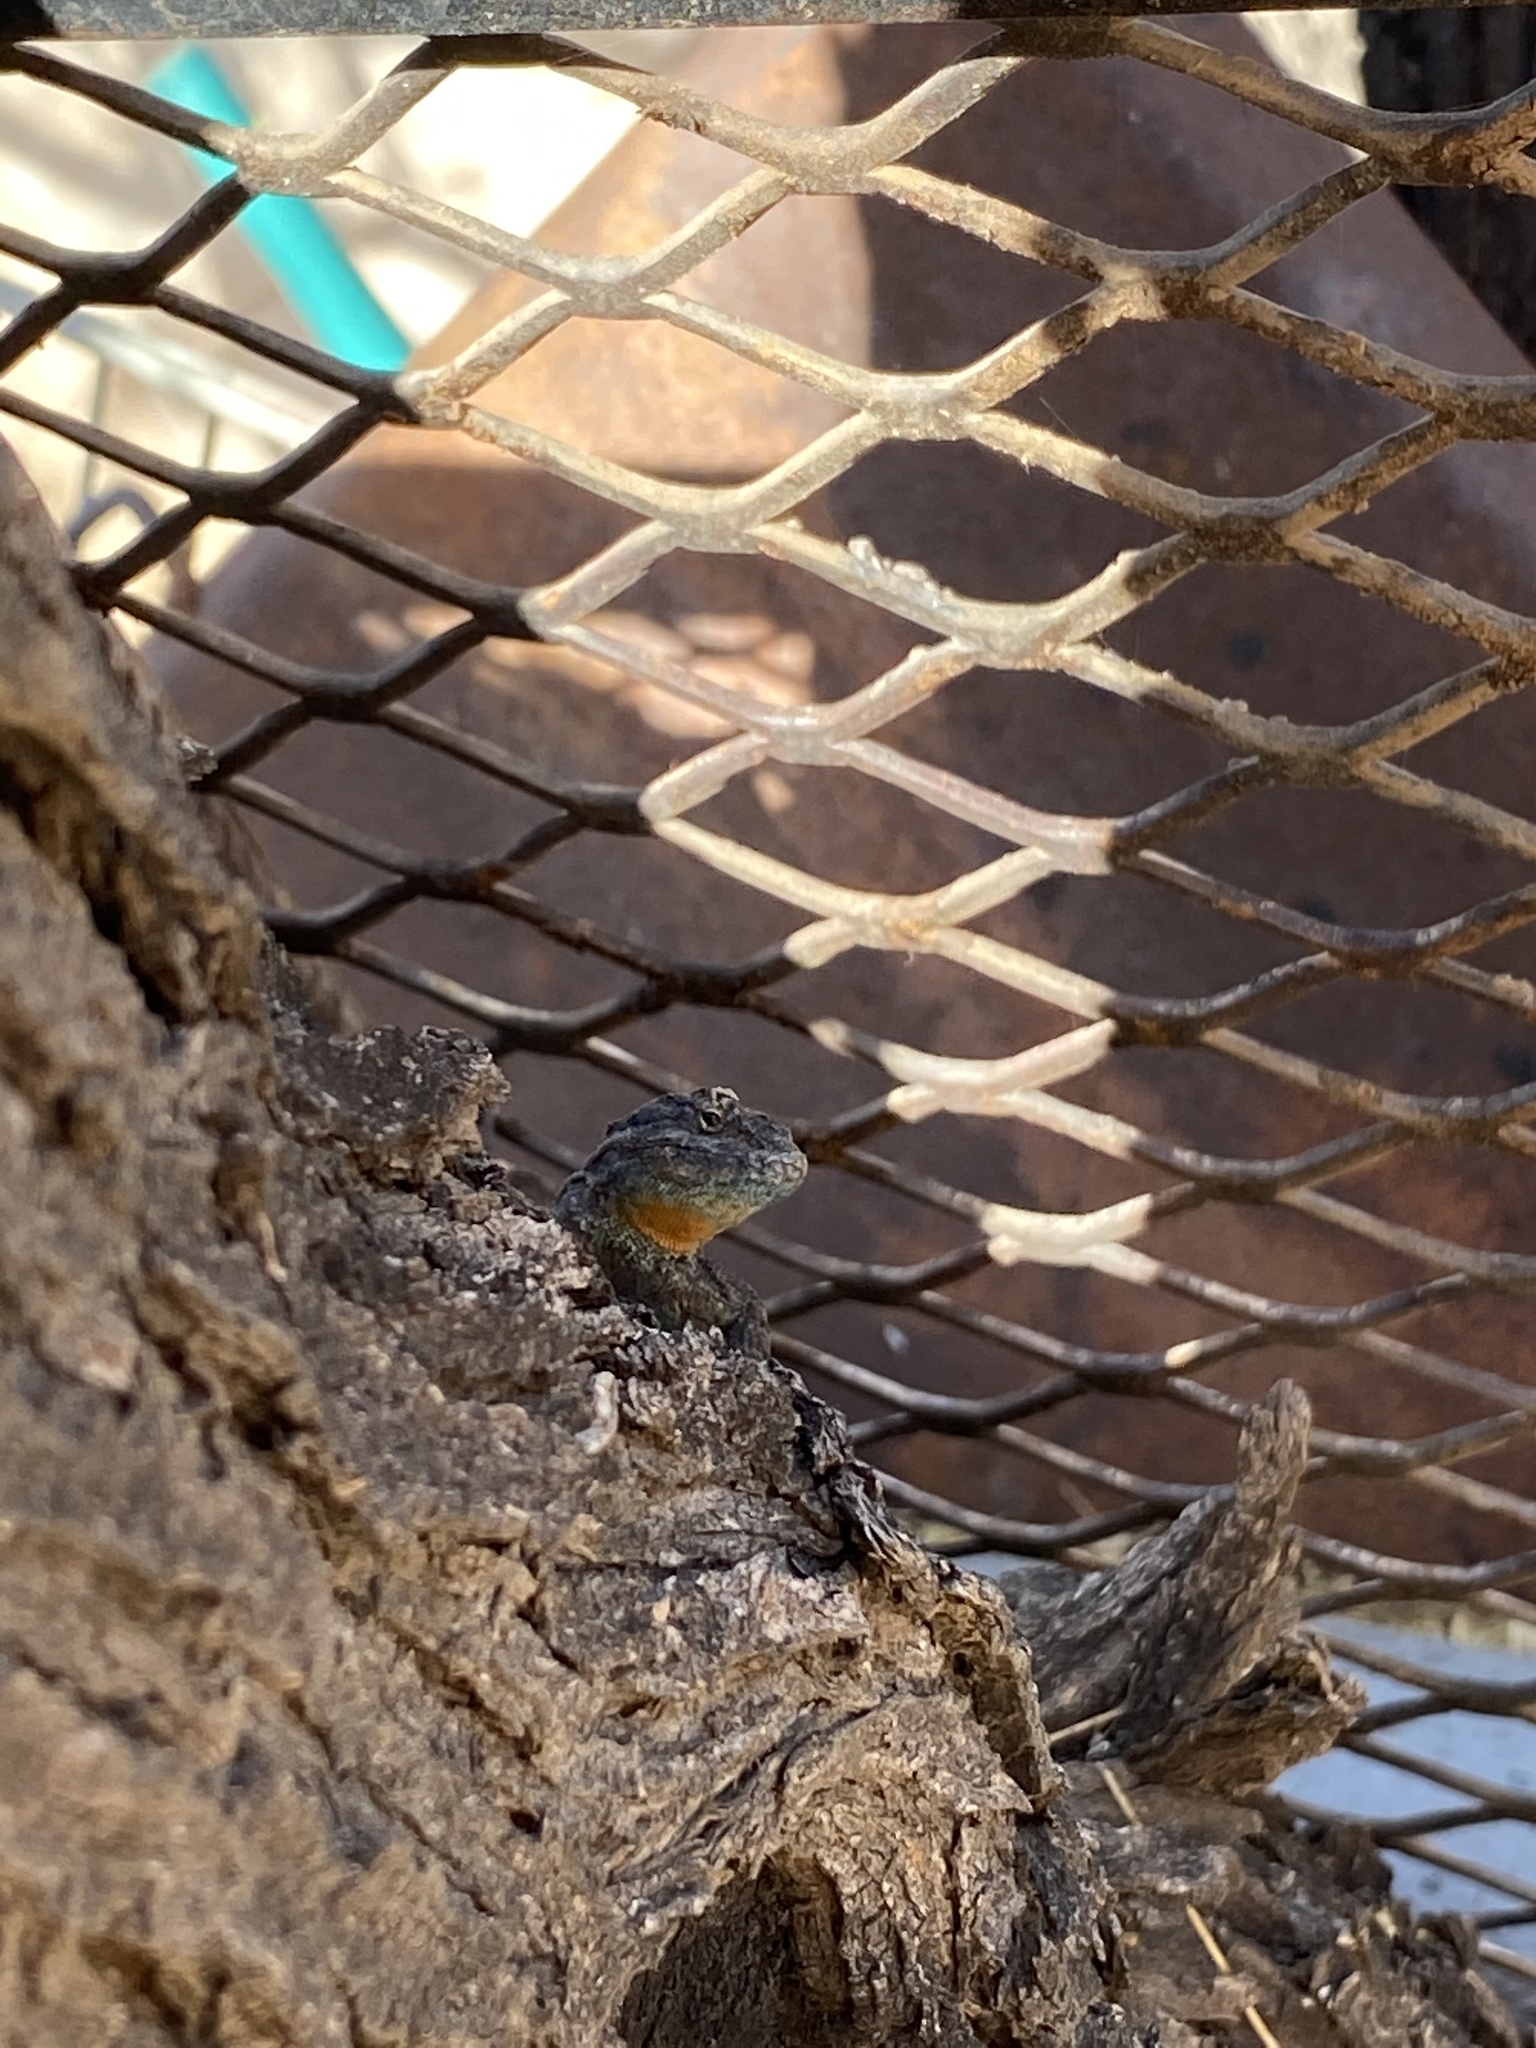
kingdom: Animalia
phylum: Chordata
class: Squamata
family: Phrynosomatidae
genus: Urosaurus
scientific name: Urosaurus ornatus
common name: Ornate tree lizard
